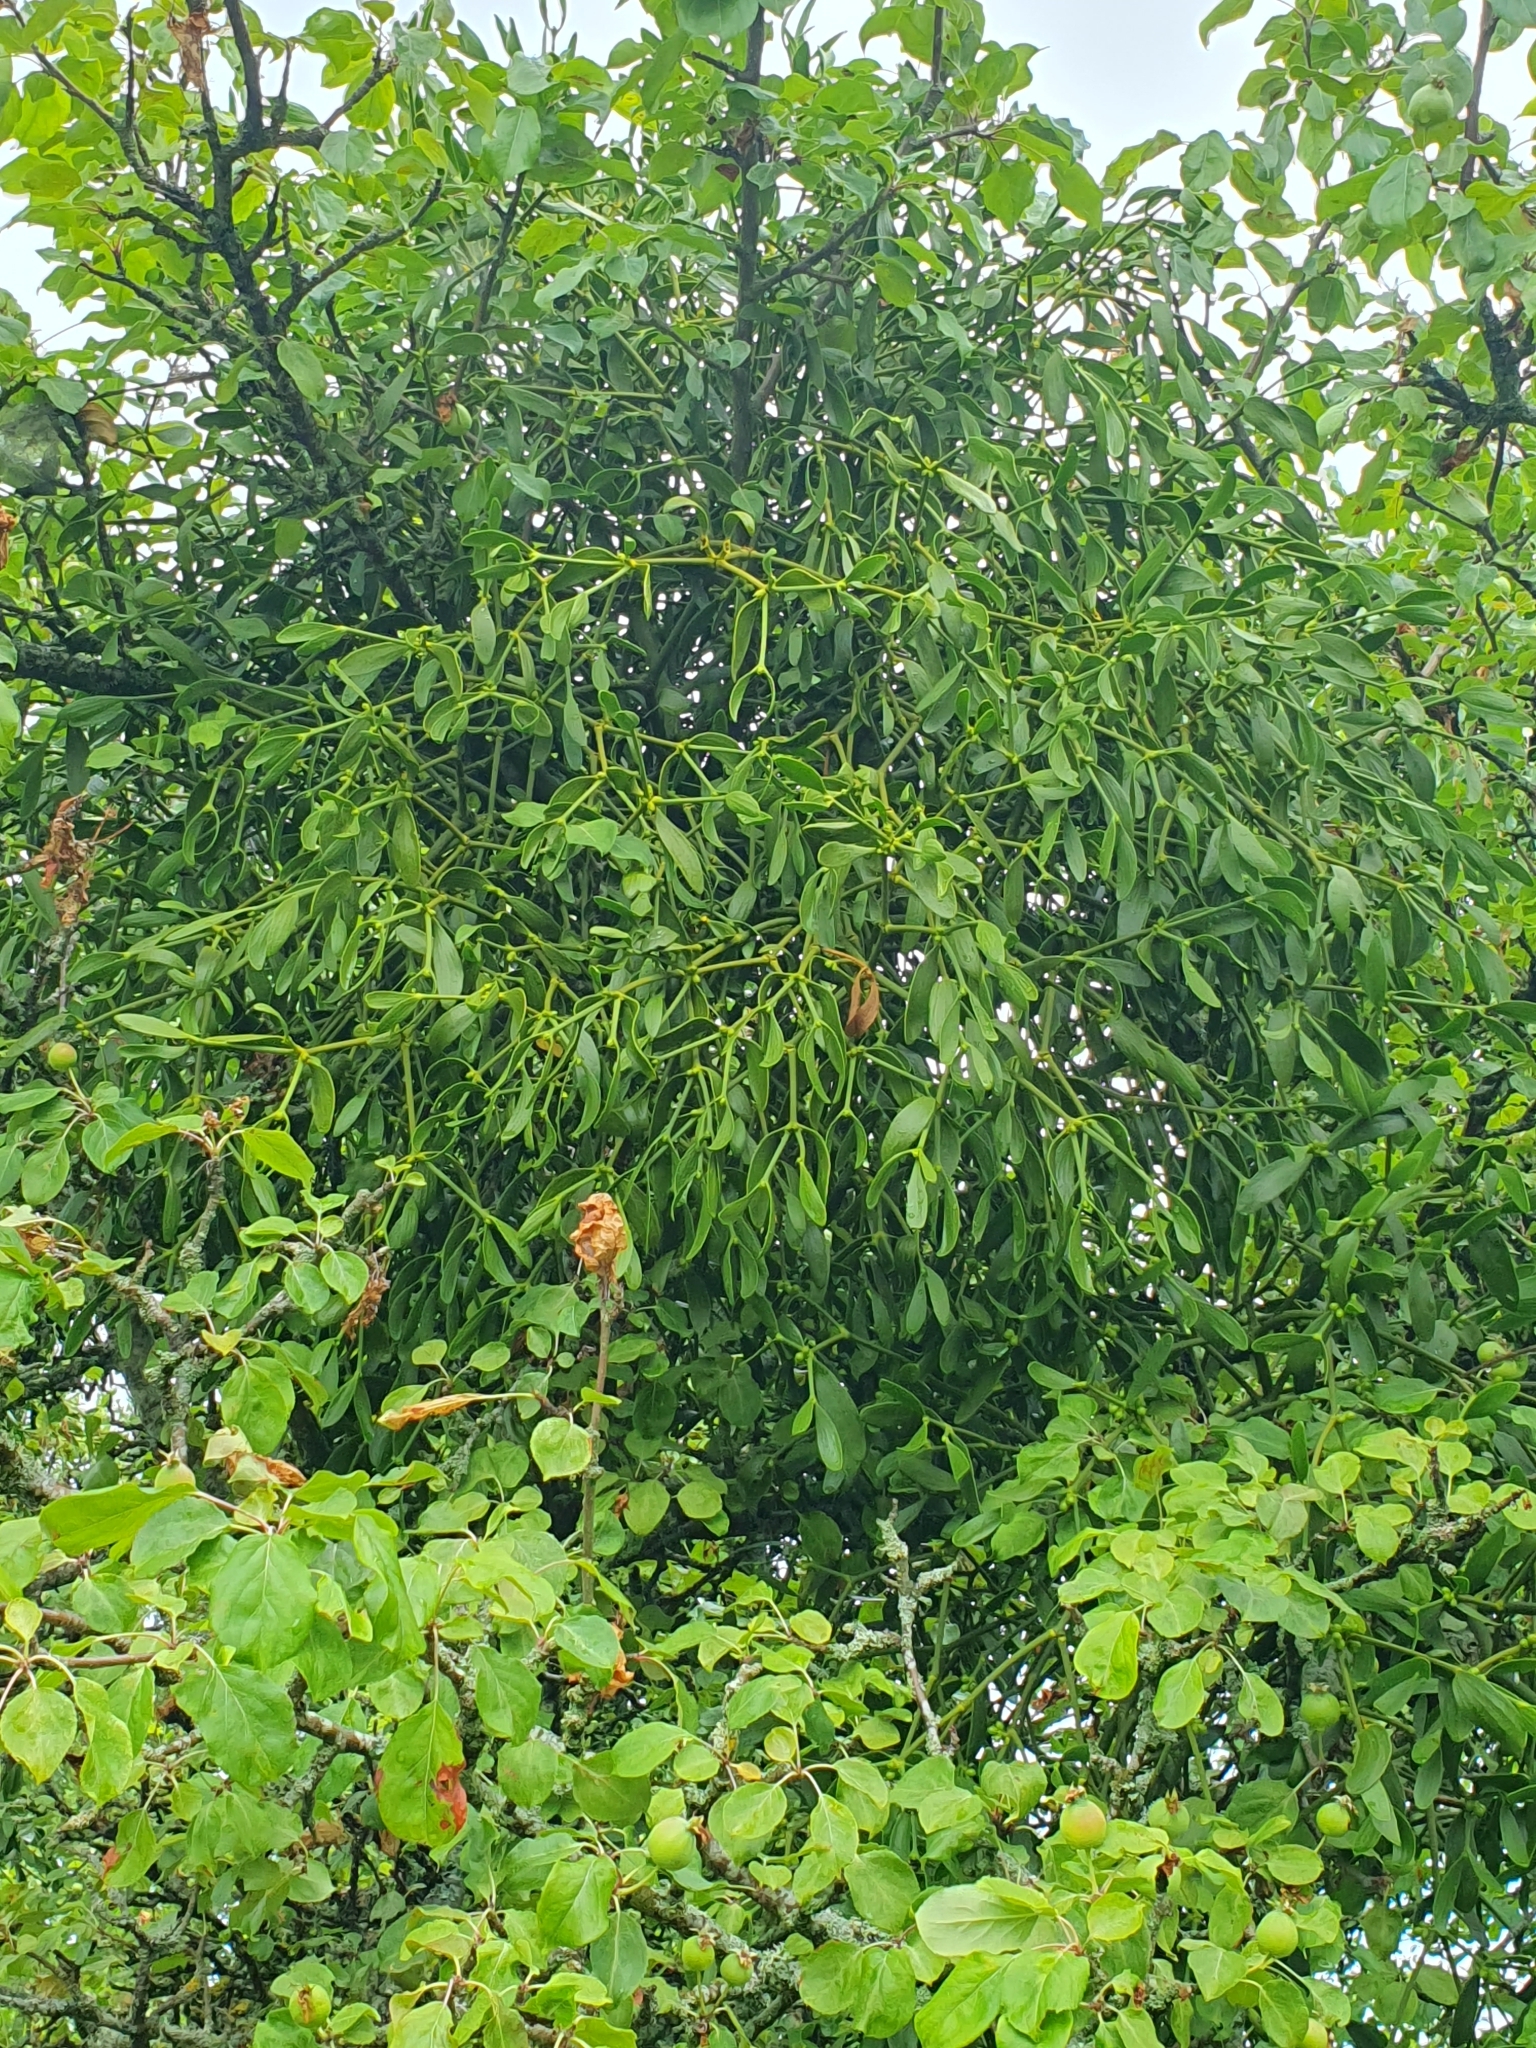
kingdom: Plantae
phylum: Tracheophyta
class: Magnoliopsida
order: Santalales
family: Viscaceae
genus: Viscum
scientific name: Viscum album
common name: Mistletoe
